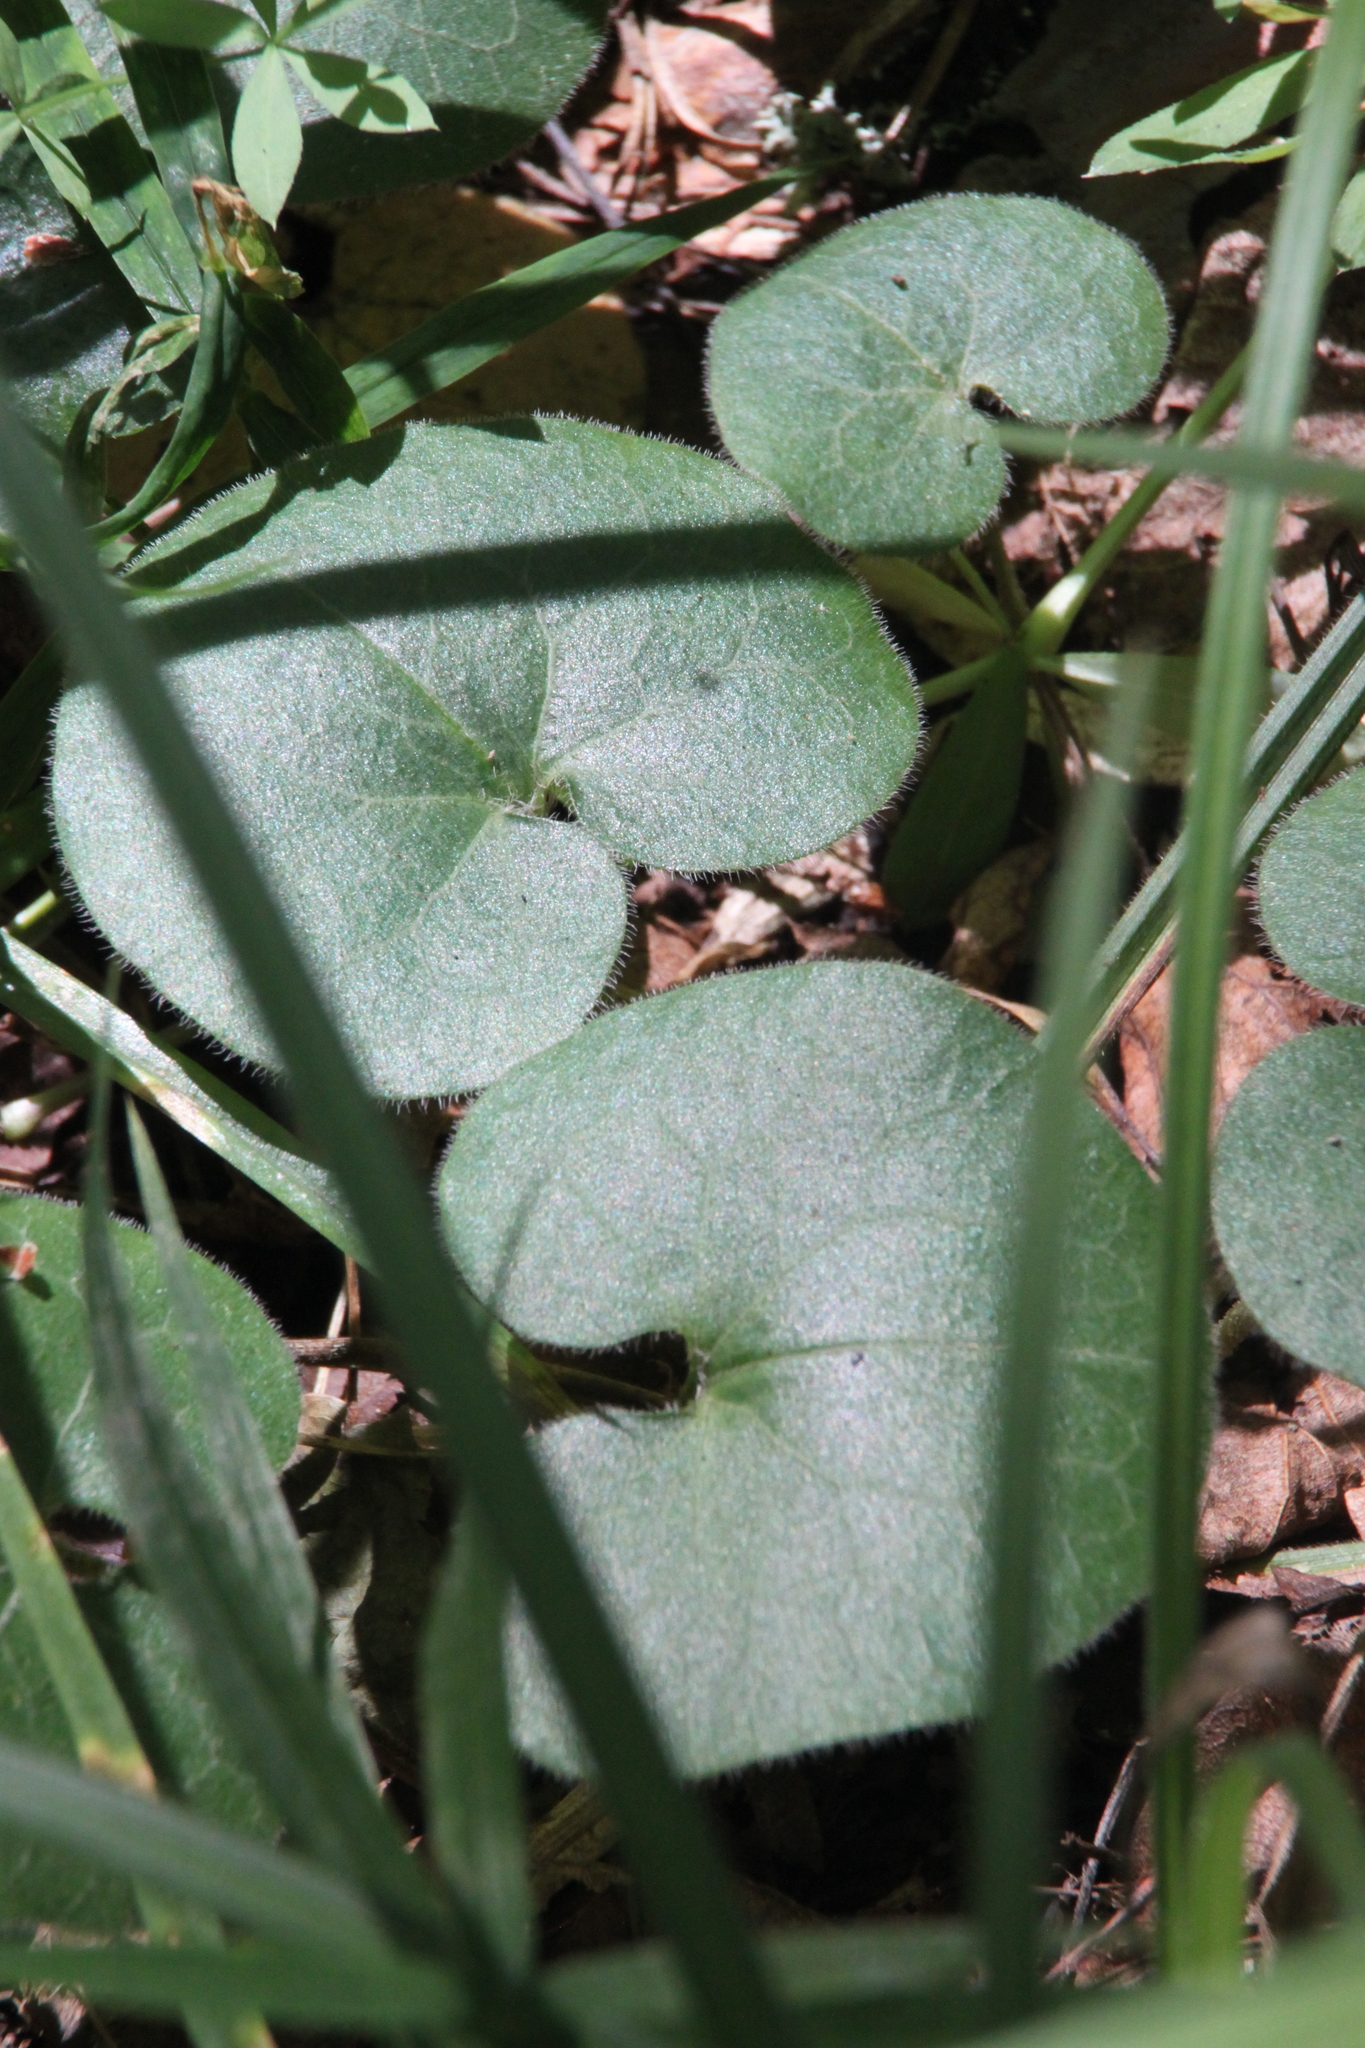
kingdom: Plantae
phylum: Tracheophyta
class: Magnoliopsida
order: Piperales
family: Aristolochiaceae
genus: Asarum
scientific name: Asarum europaeum
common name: Asarabacca
